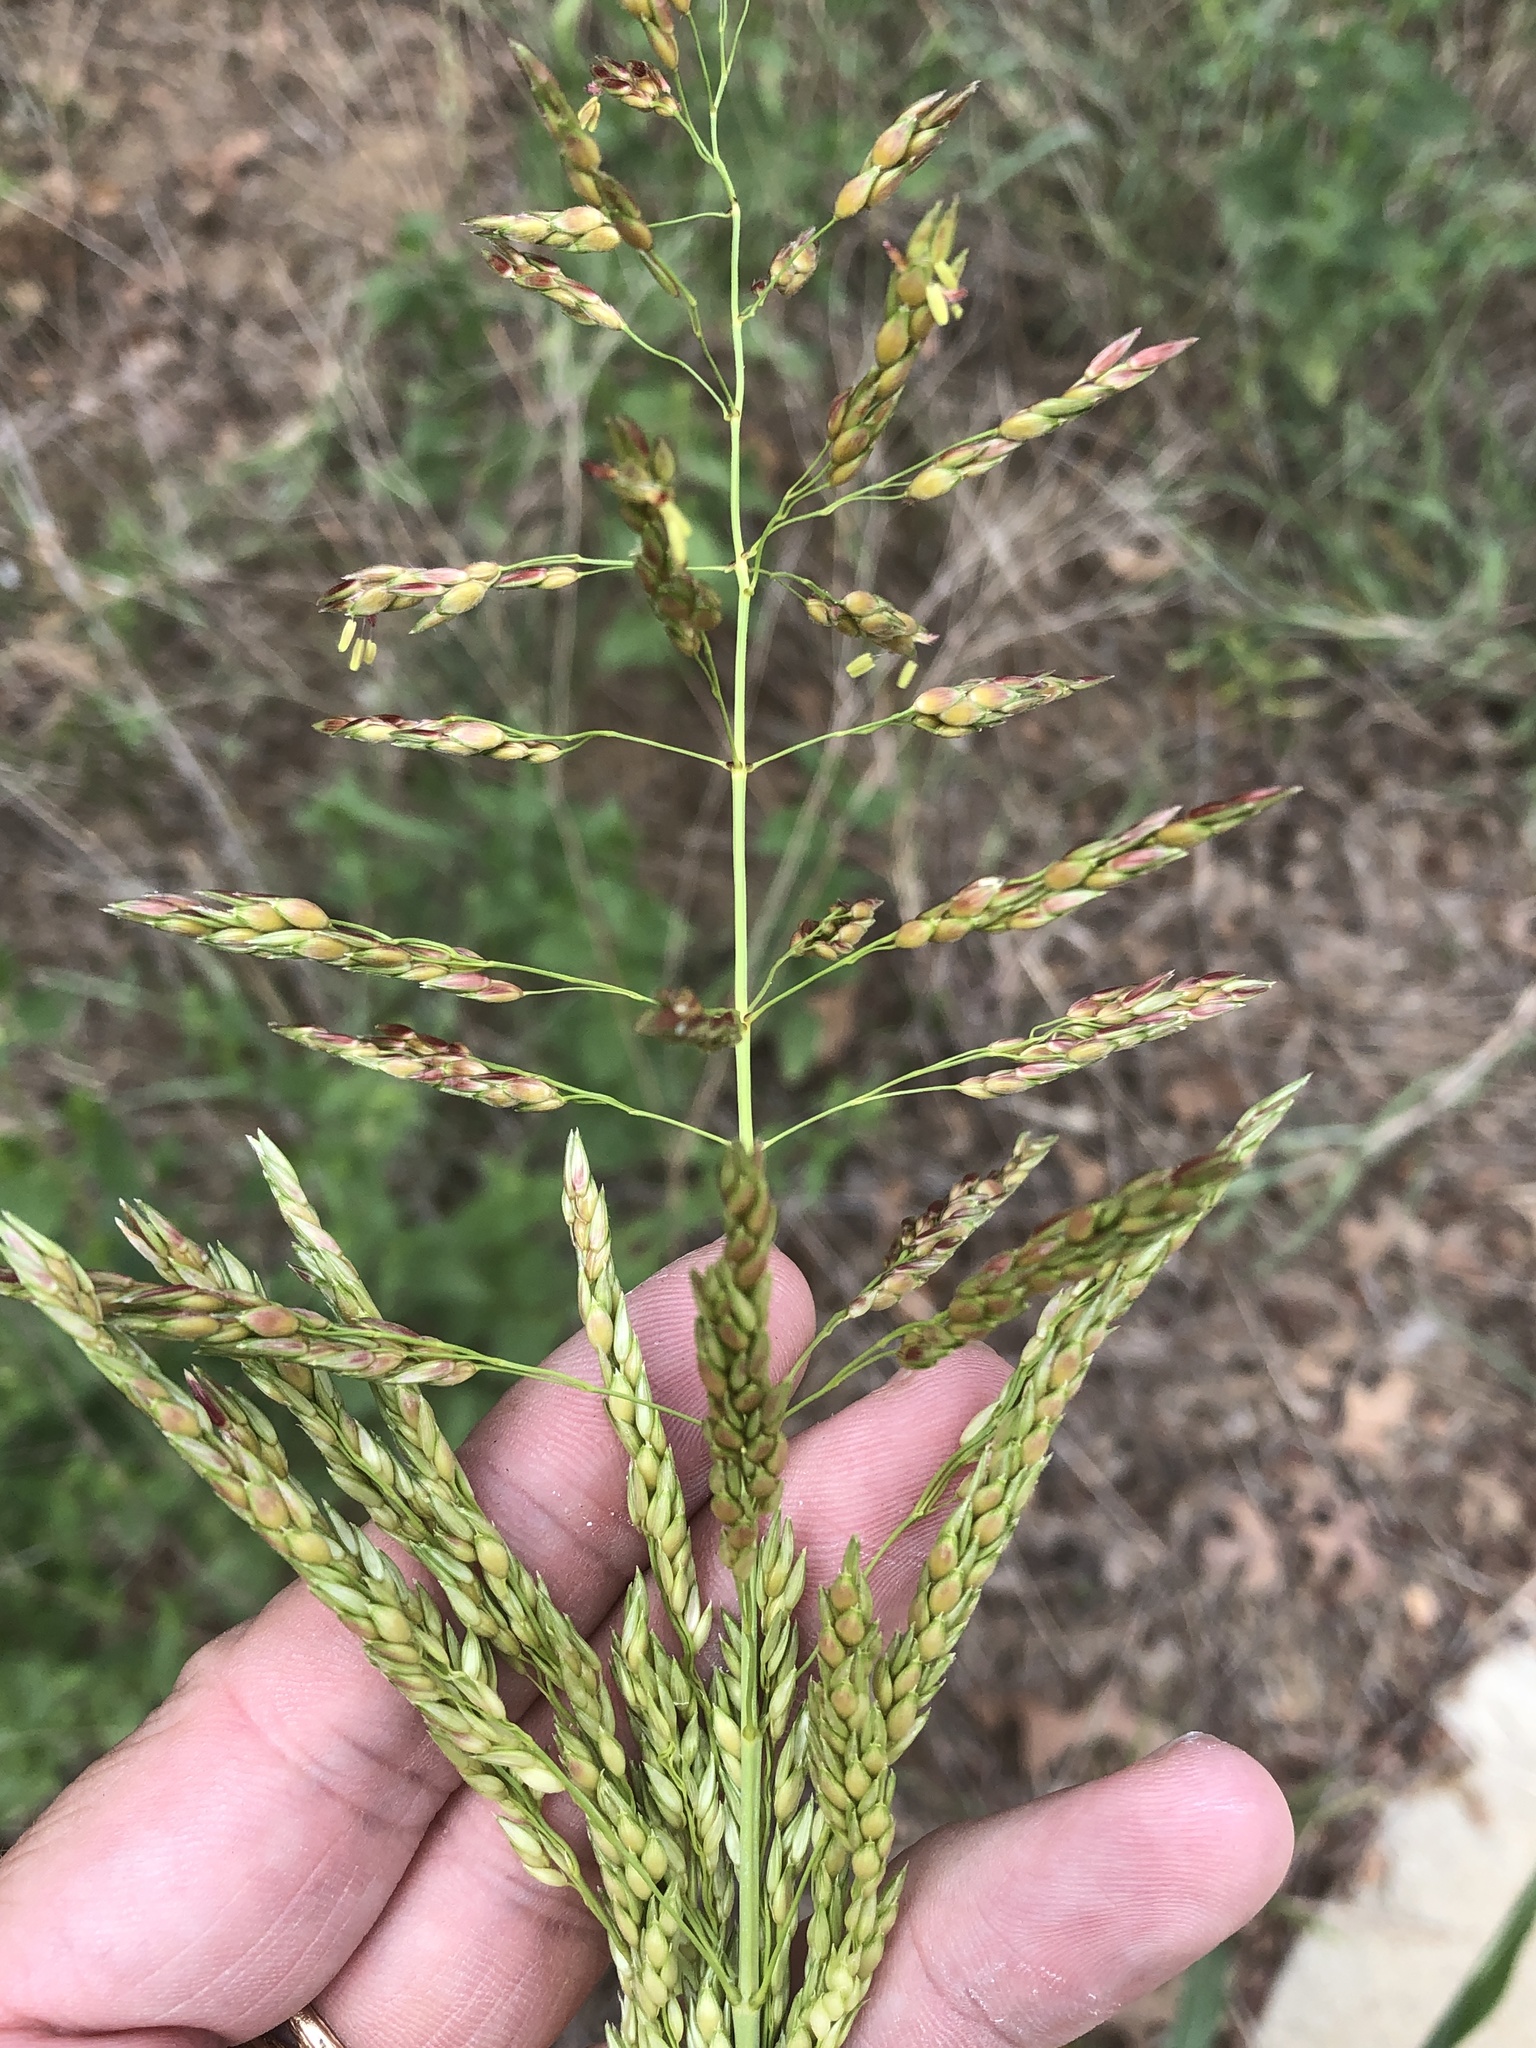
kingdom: Plantae
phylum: Tracheophyta
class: Liliopsida
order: Poales
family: Poaceae
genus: Sorghum
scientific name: Sorghum halepense
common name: Johnson-grass
